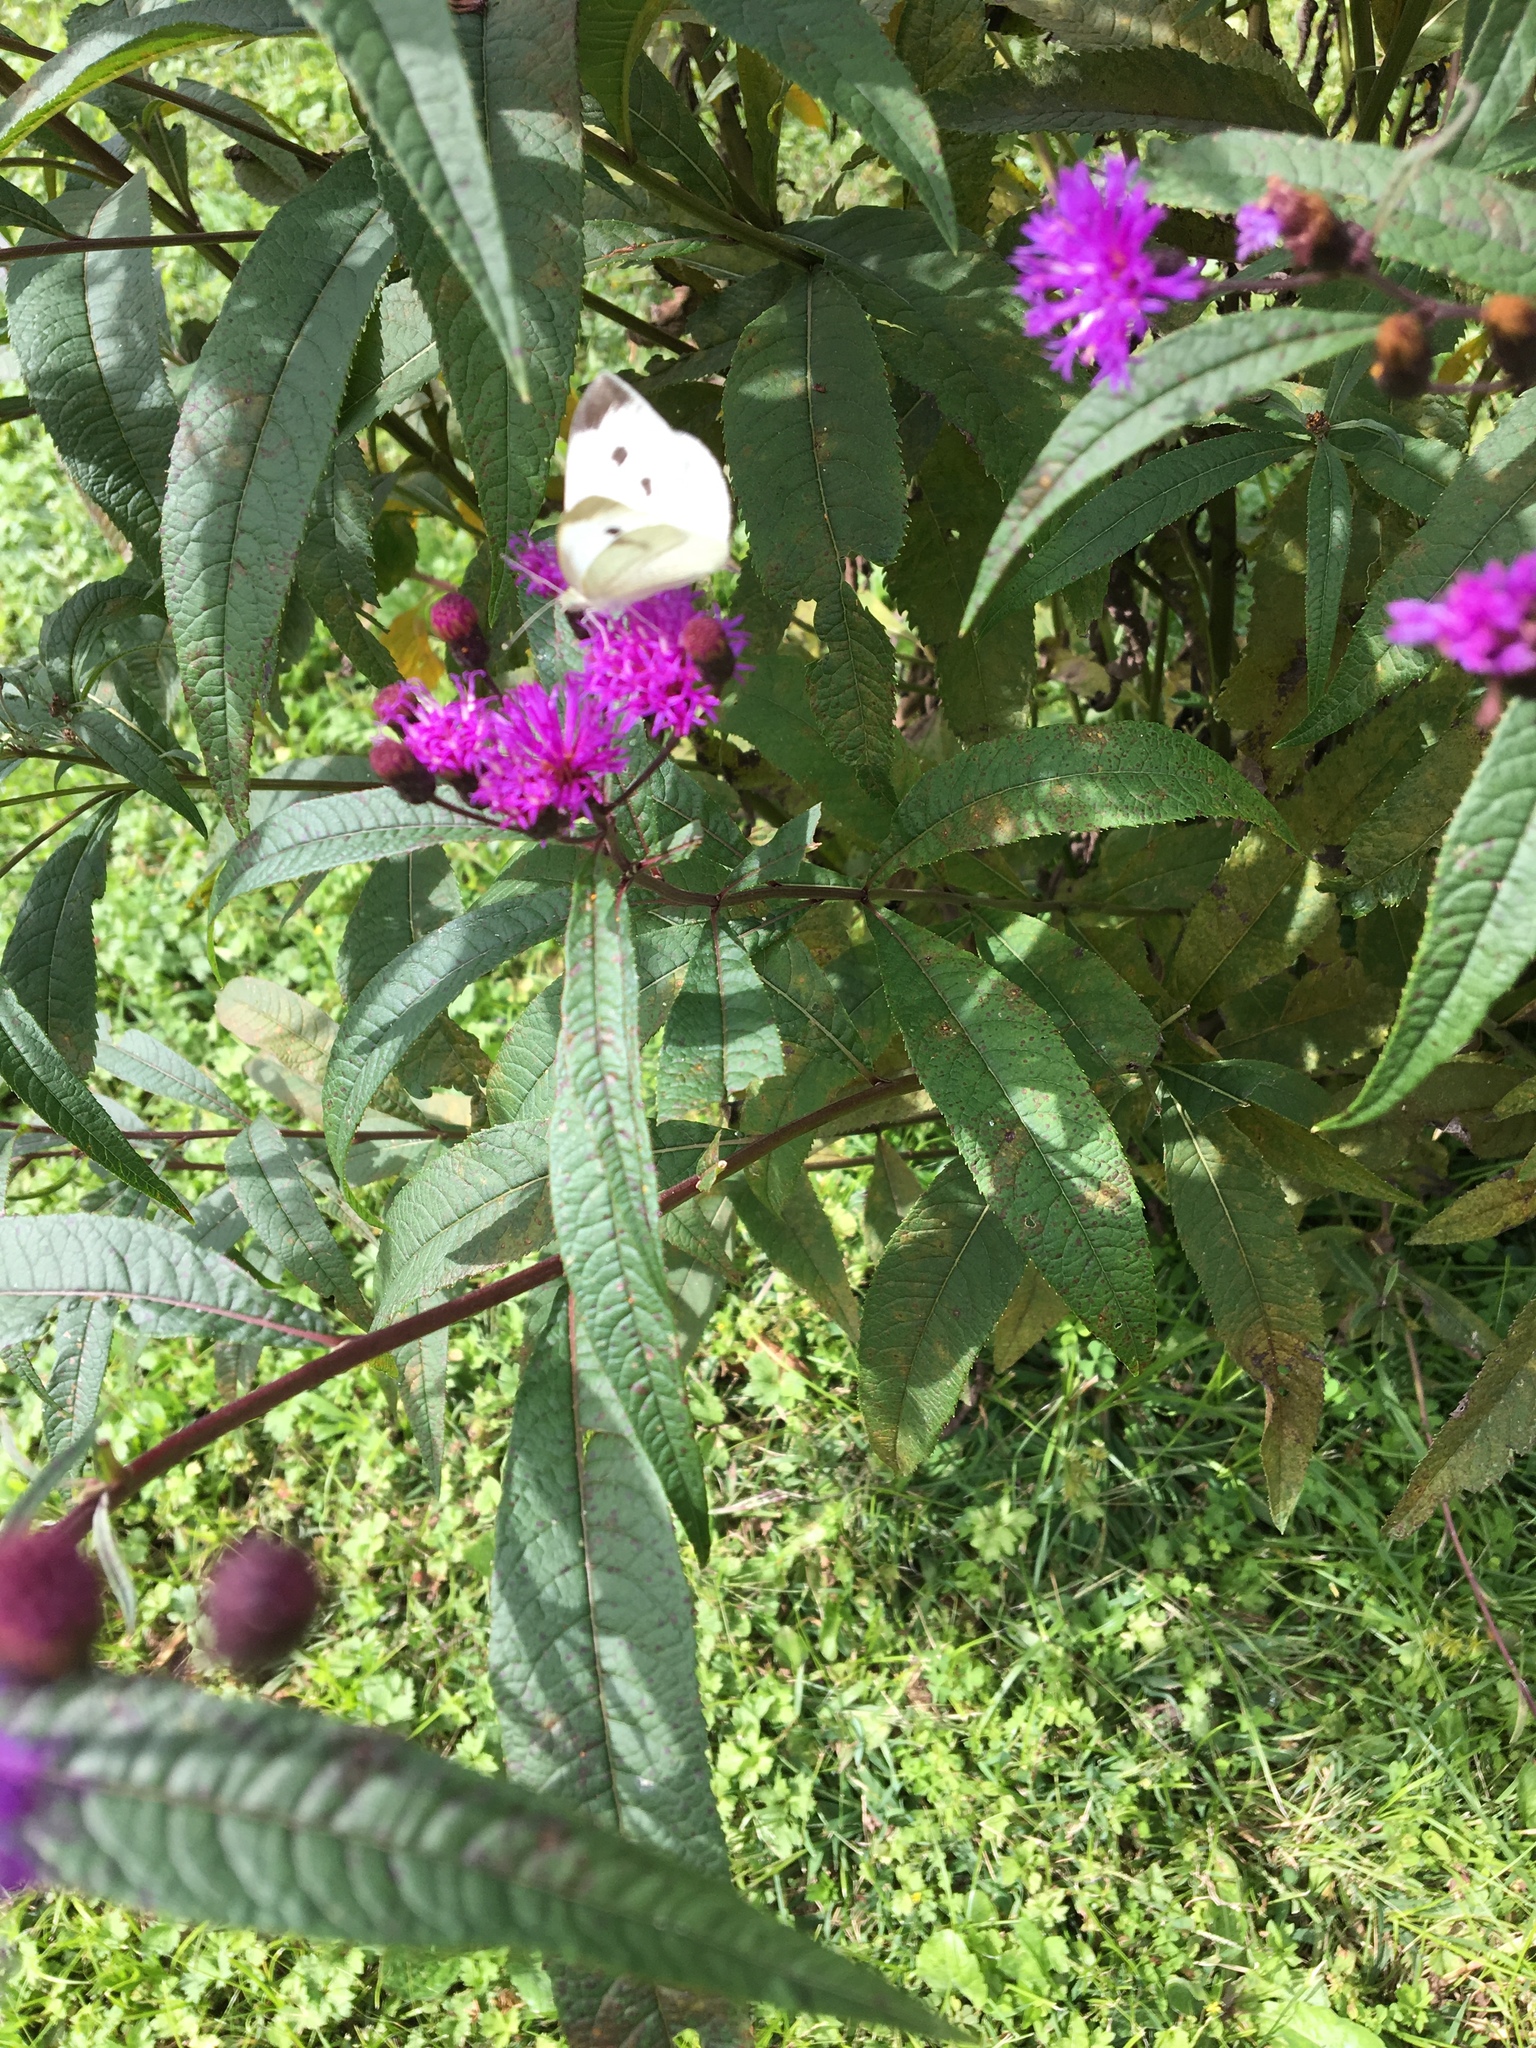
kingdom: Animalia
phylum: Arthropoda
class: Insecta
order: Lepidoptera
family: Pieridae
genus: Pieris
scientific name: Pieris rapae
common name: Small white
